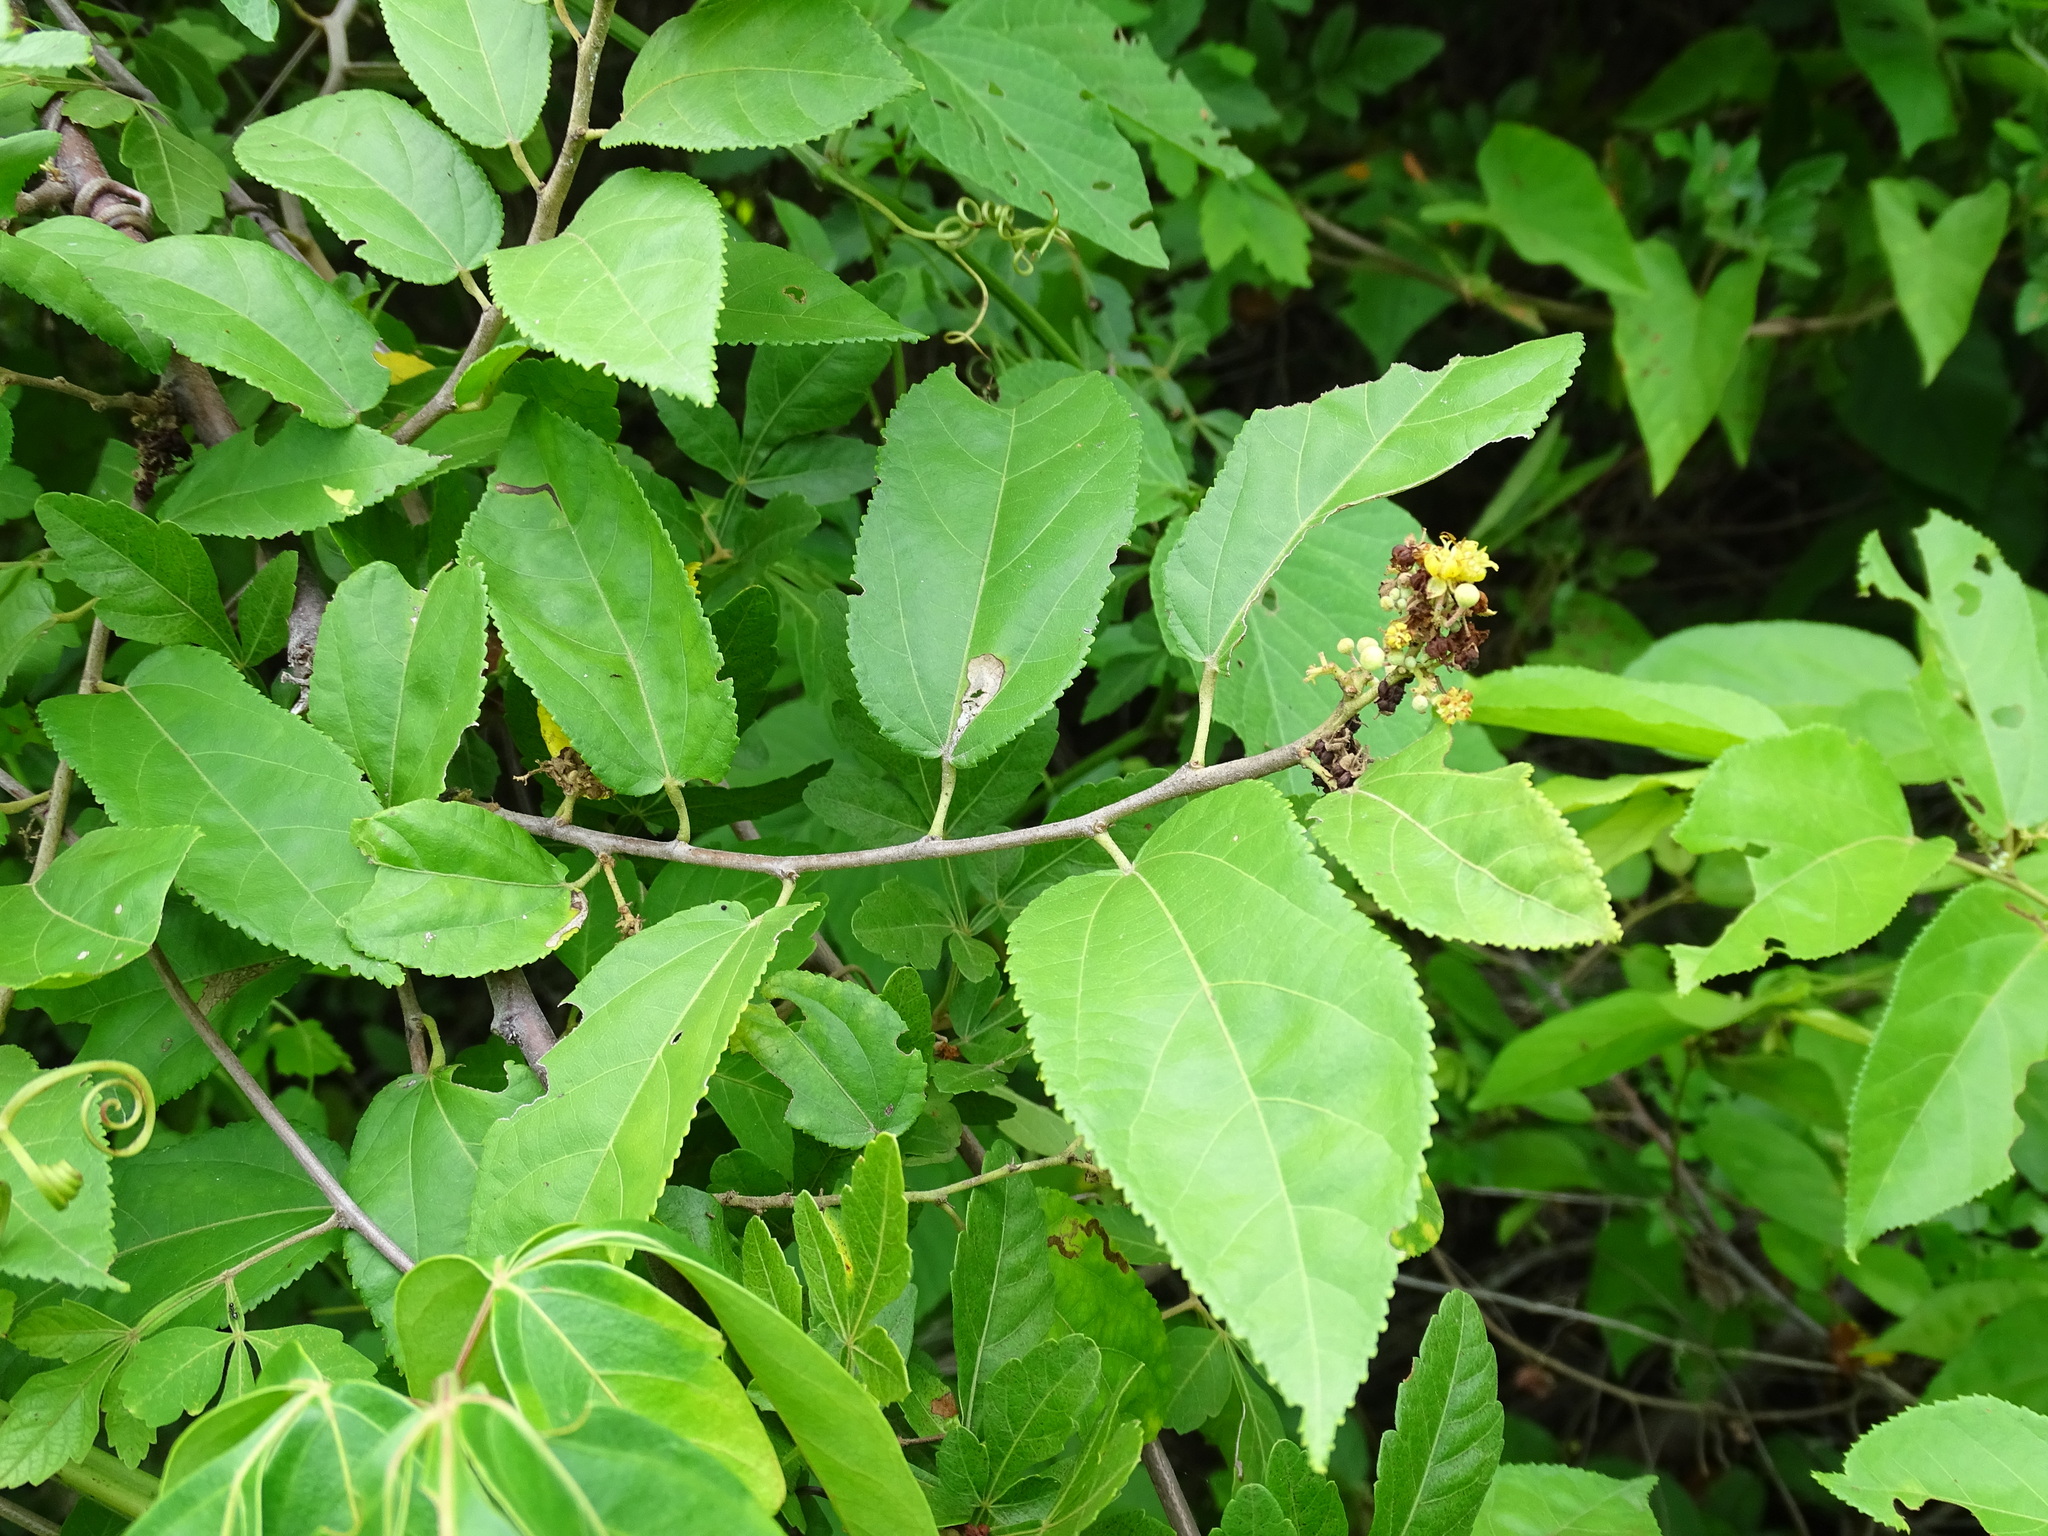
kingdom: Plantae
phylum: Tracheophyta
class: Magnoliopsida
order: Malvales
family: Malvaceae
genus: Guazuma
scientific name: Guazuma ulmifolia
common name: Bastard-cedar
